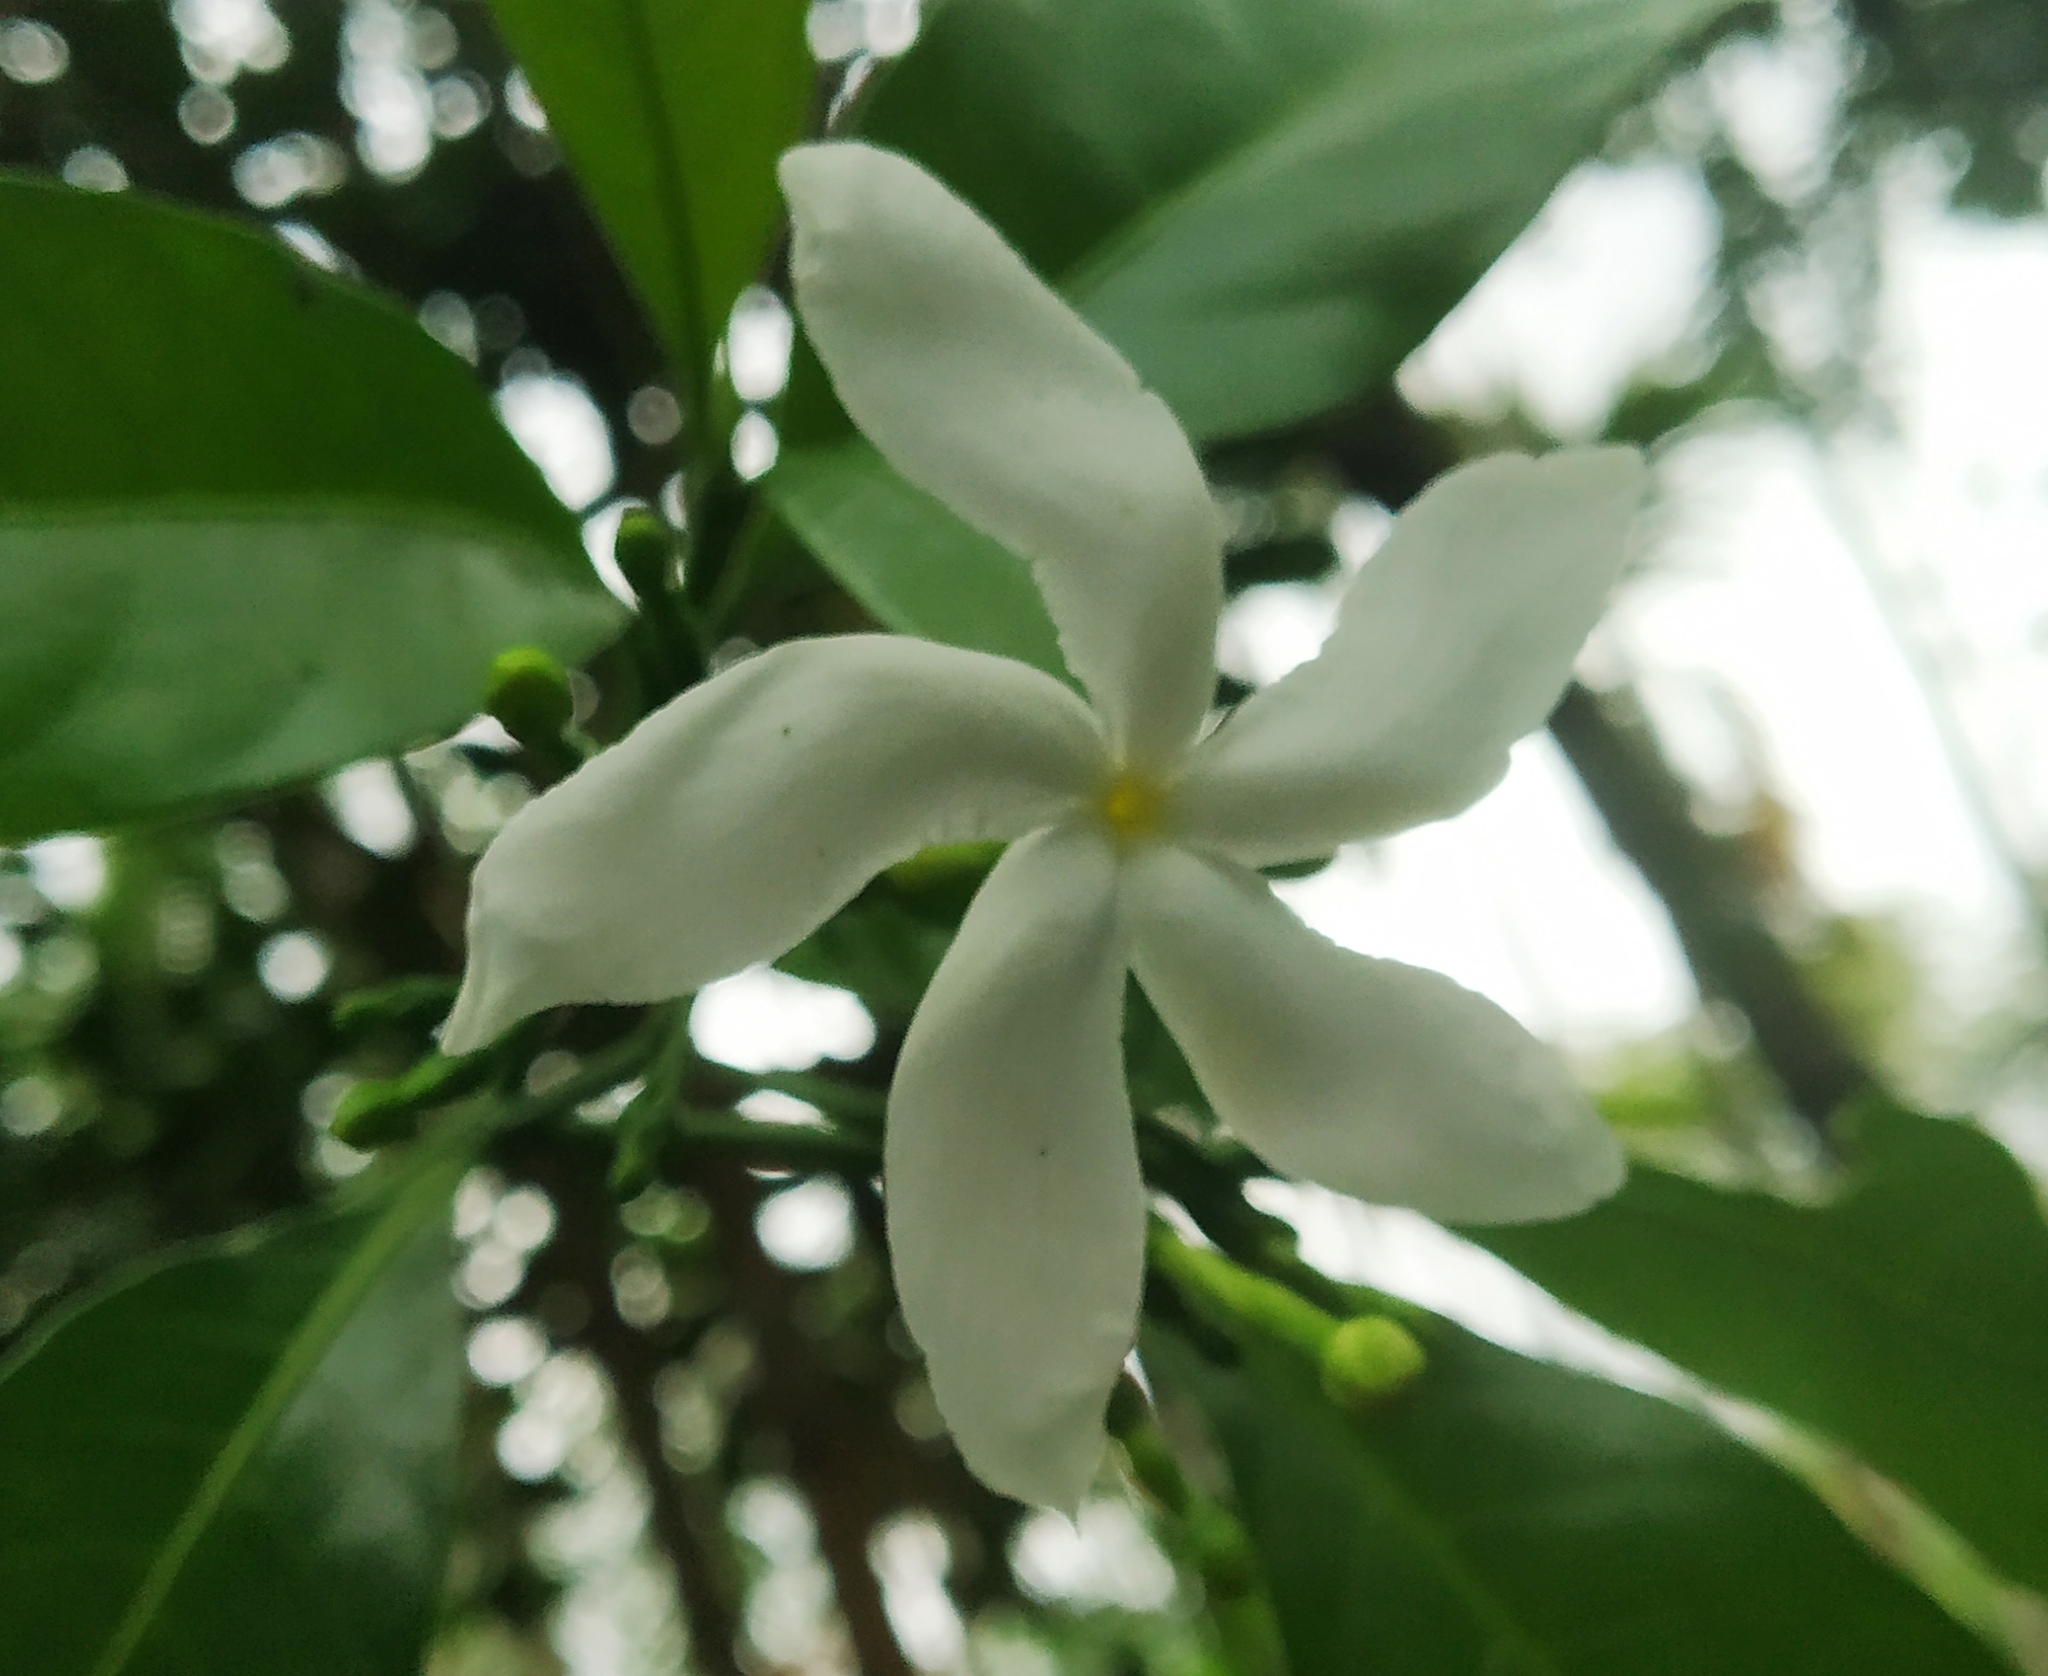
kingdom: Plantae
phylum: Tracheophyta
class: Magnoliopsida
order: Gentianales
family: Apocynaceae
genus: Tabernaemontana
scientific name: Tabernaemontana divaricata
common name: Pinwheelflower
